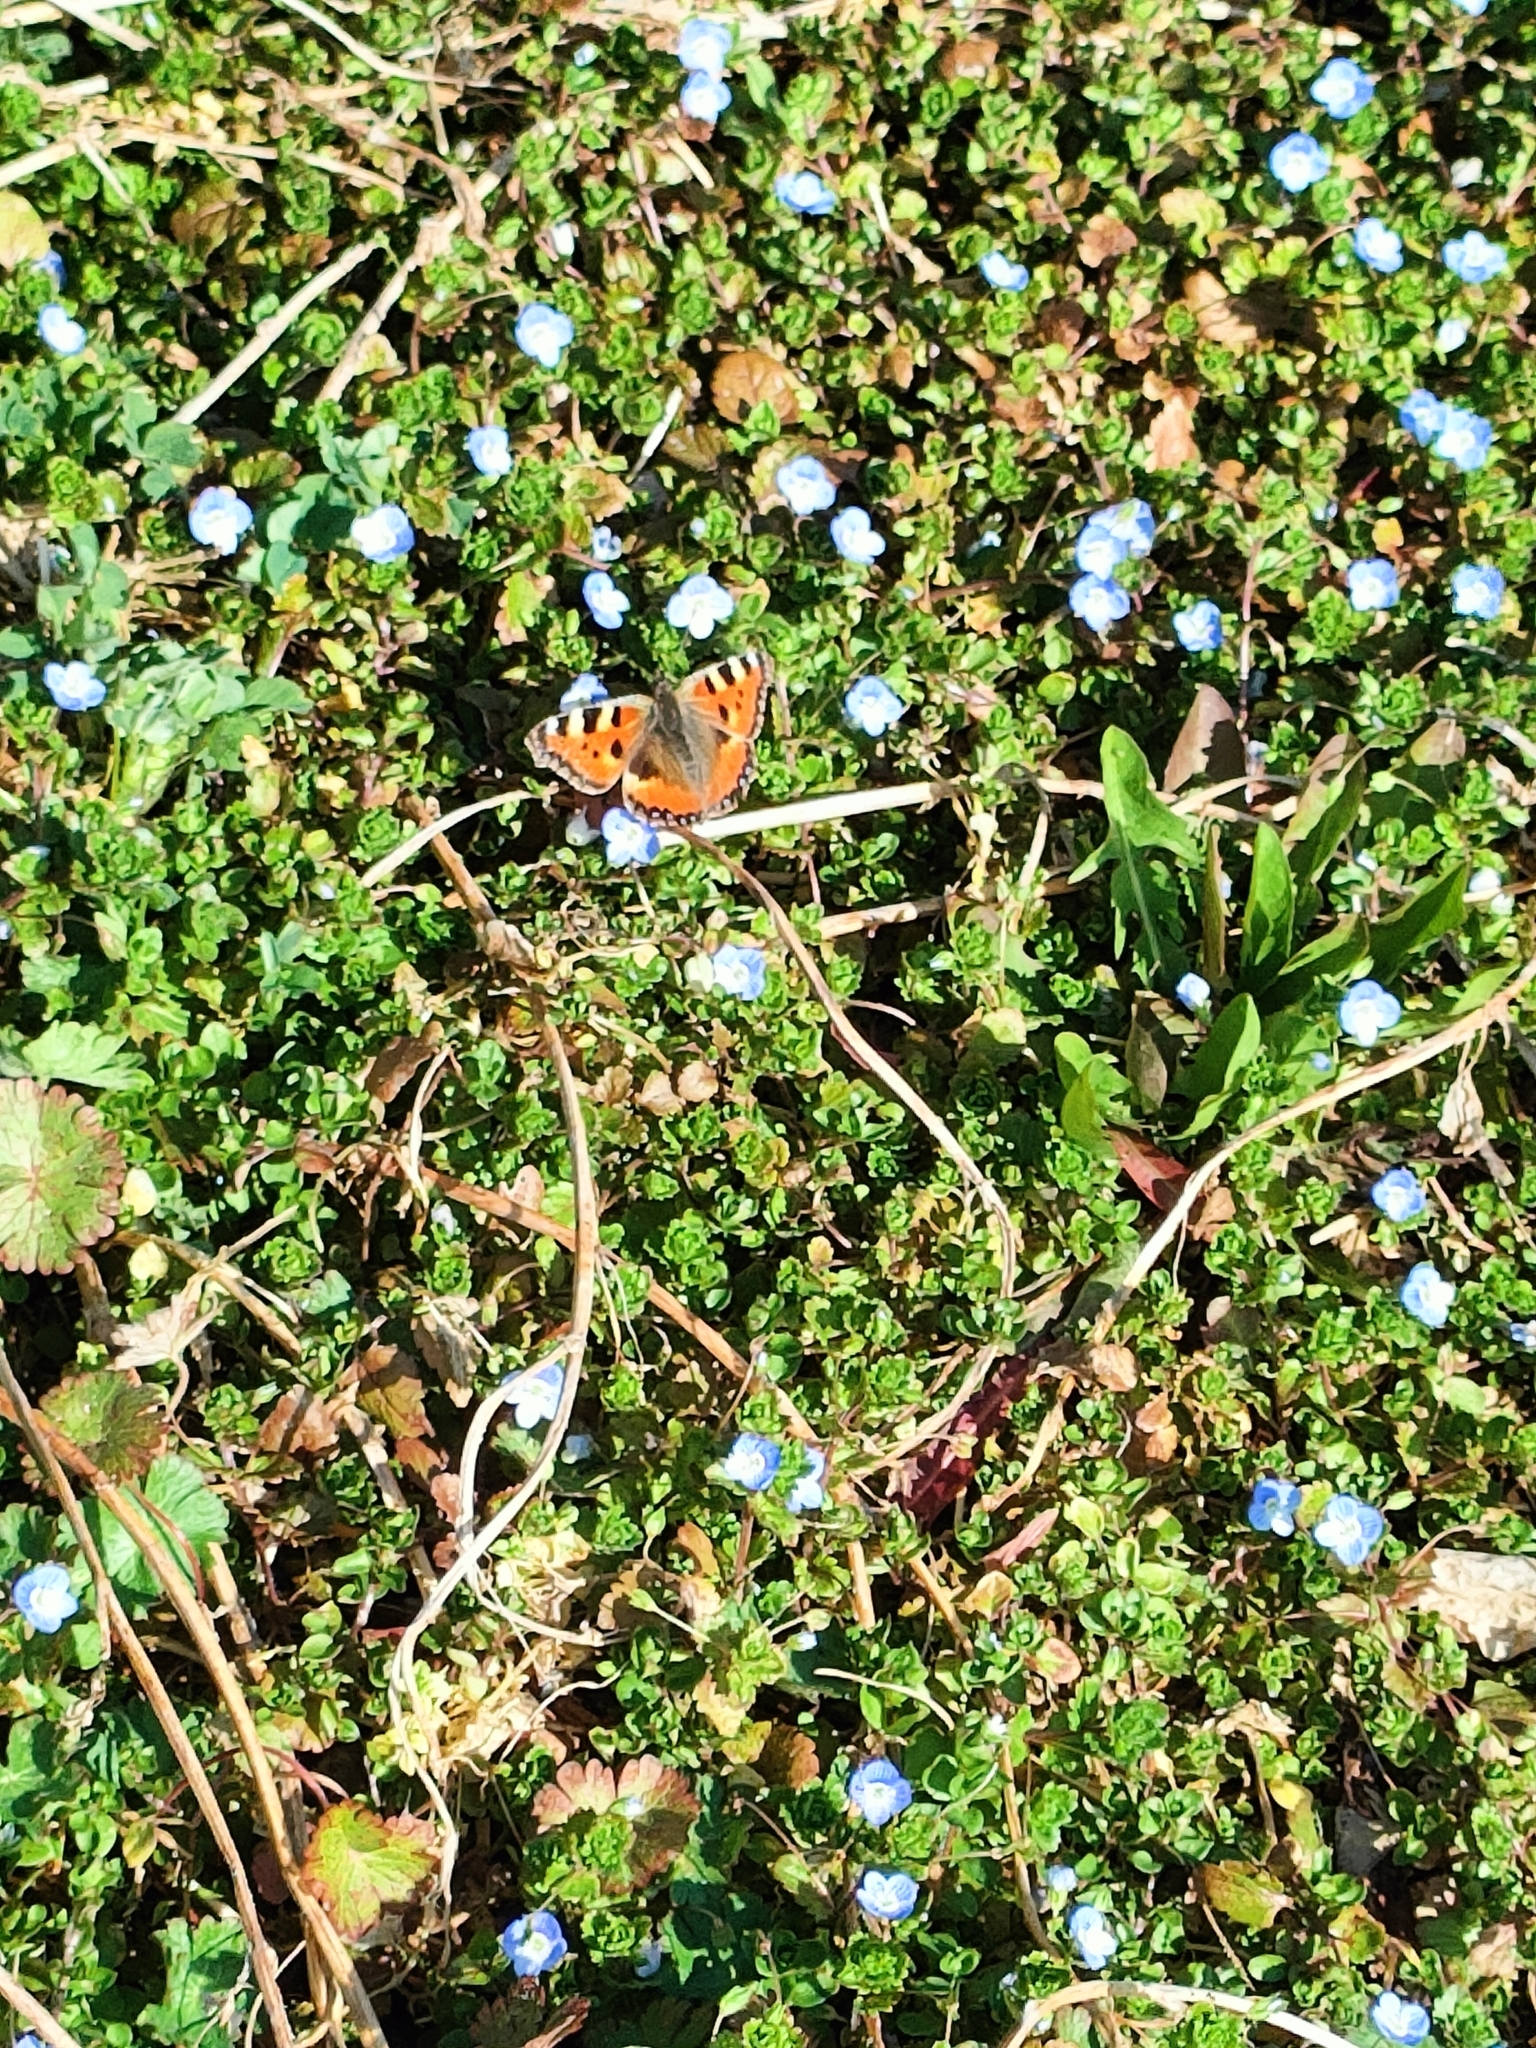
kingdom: Animalia
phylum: Arthropoda
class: Insecta
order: Lepidoptera
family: Nymphalidae
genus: Aglais
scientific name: Aglais urticae
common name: Small tortoiseshell
